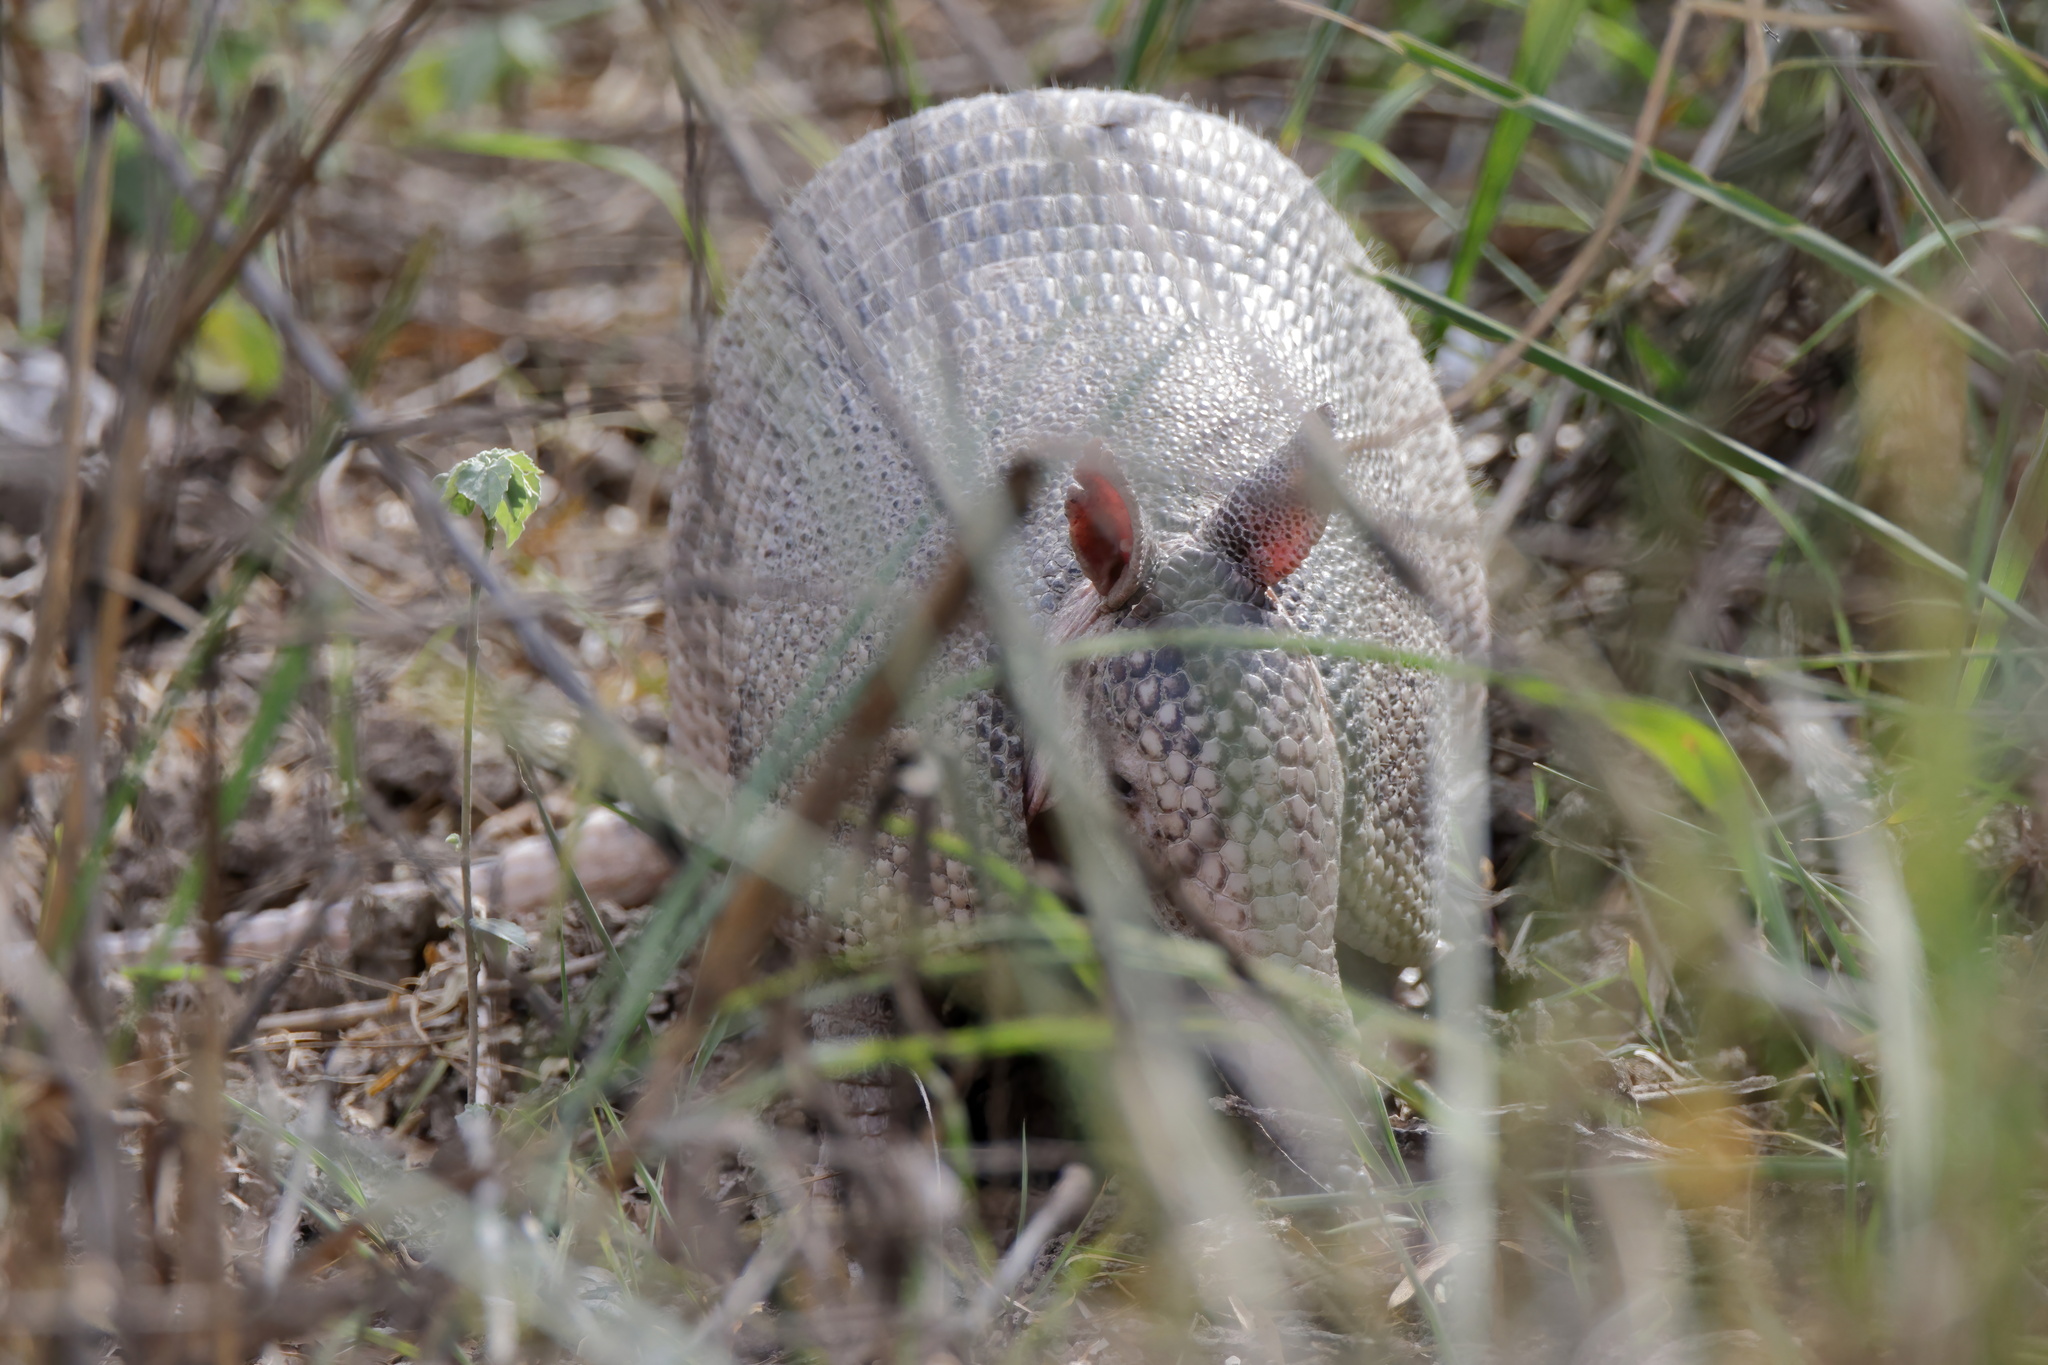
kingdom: Animalia
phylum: Chordata
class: Mammalia
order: Cingulata
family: Dasypodidae
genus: Dasypus
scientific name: Dasypus novemcinctus
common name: Nine-banded armadillo
